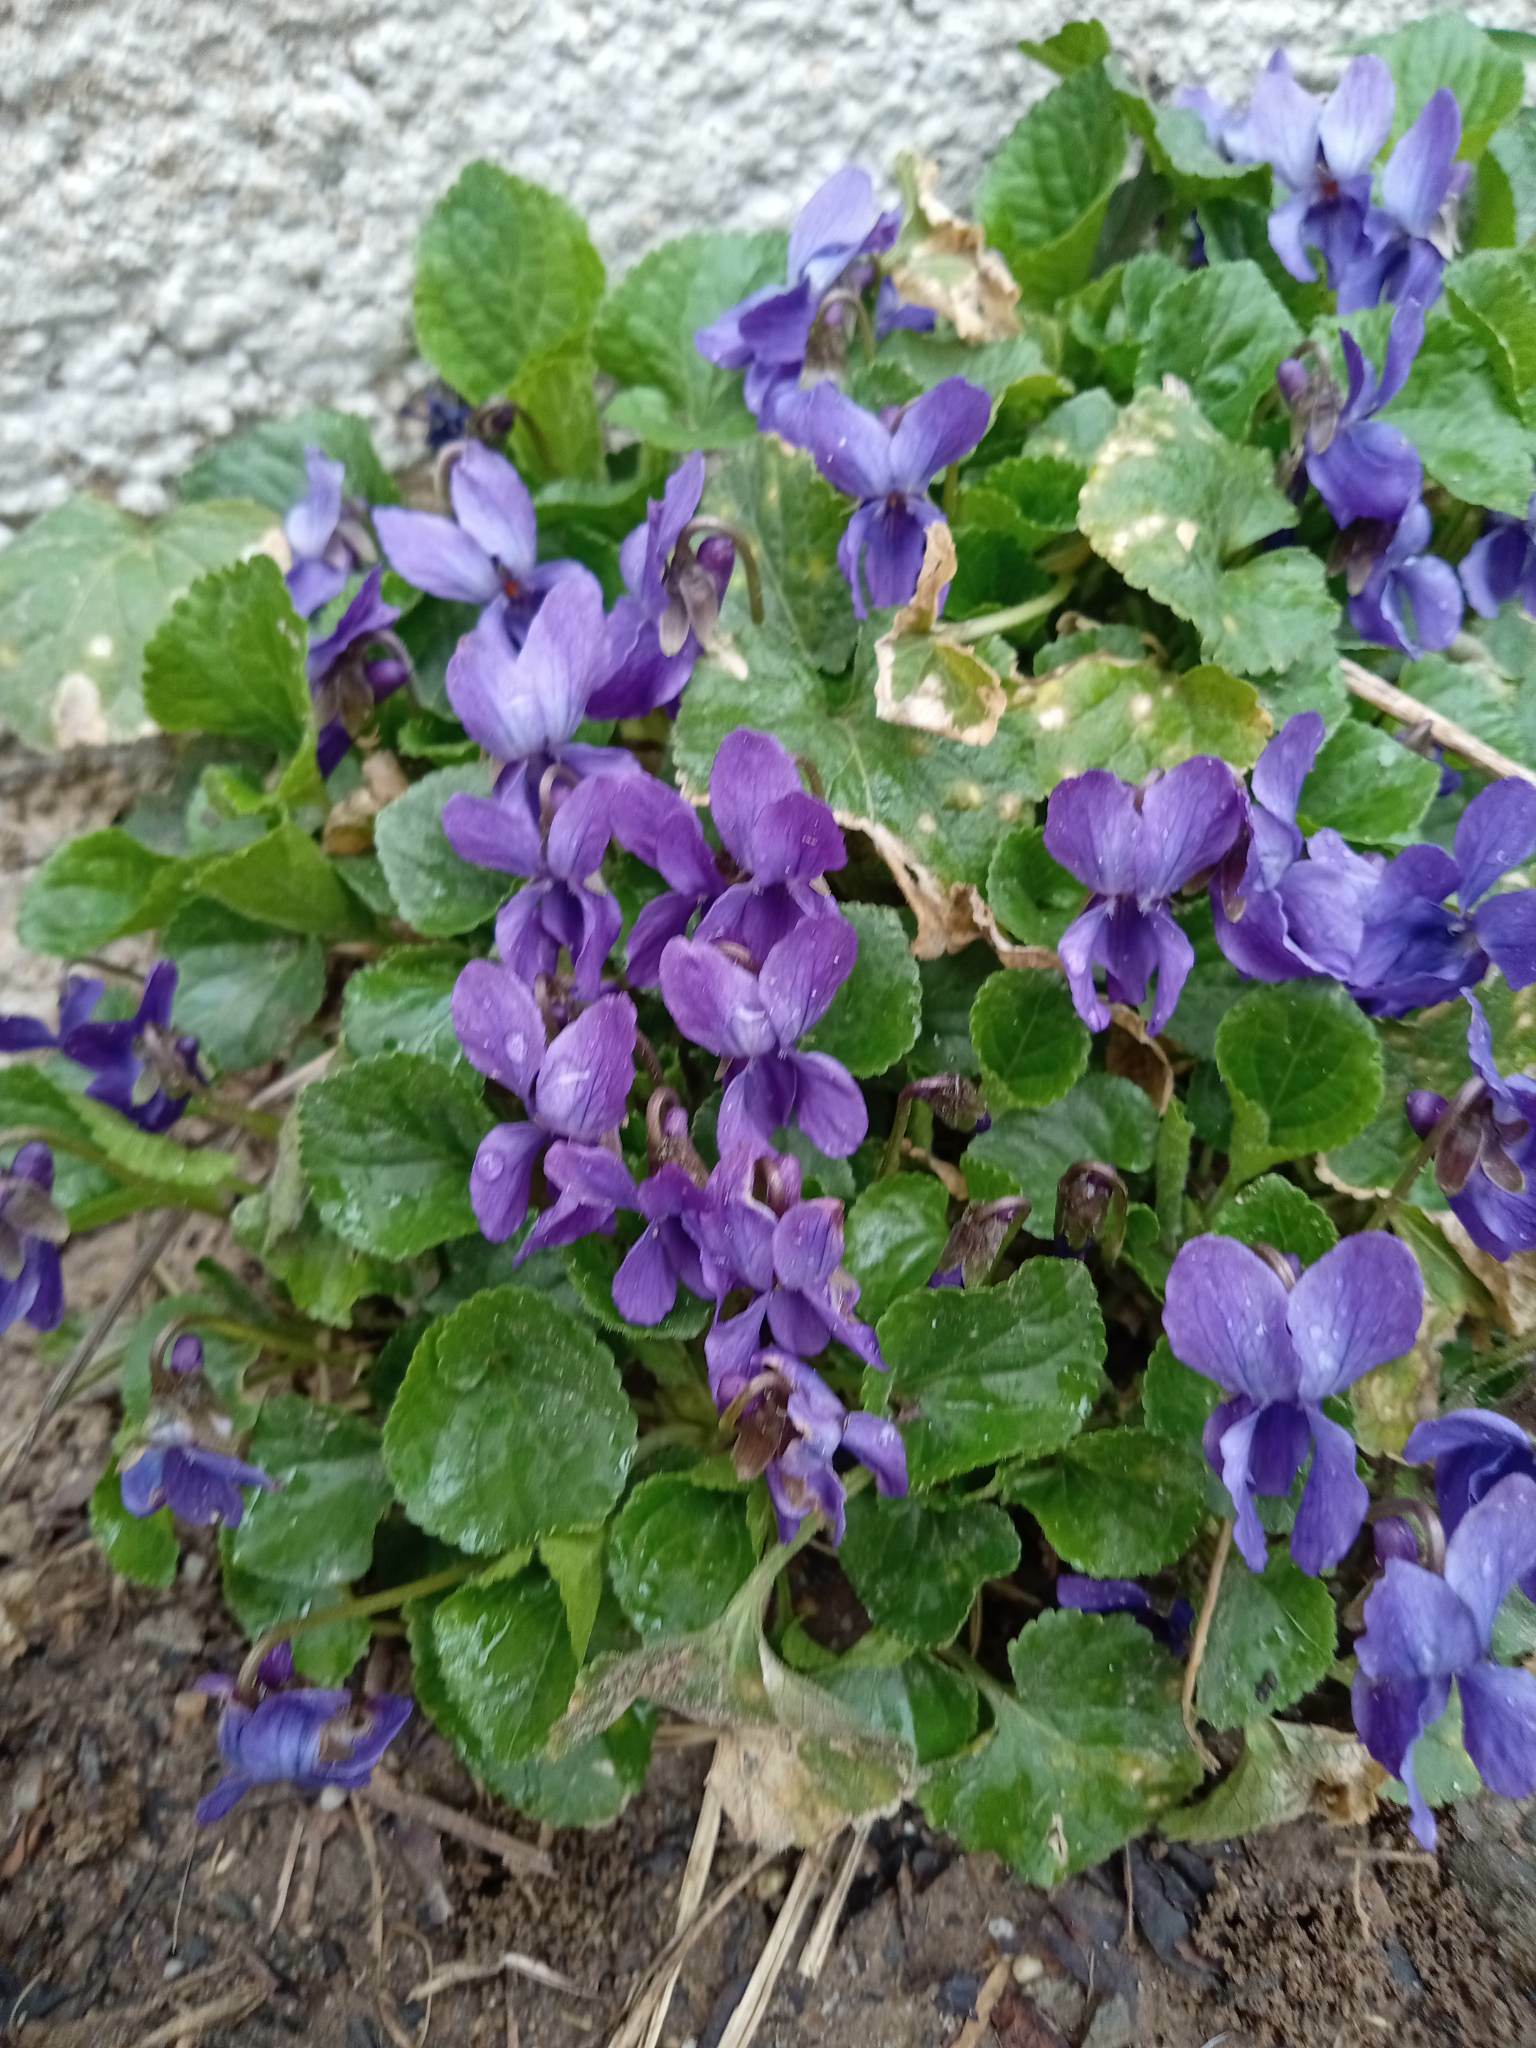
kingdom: Plantae
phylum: Tracheophyta
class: Magnoliopsida
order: Malpighiales
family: Violaceae
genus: Viola
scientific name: Viola odorata
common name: Sweet violet
